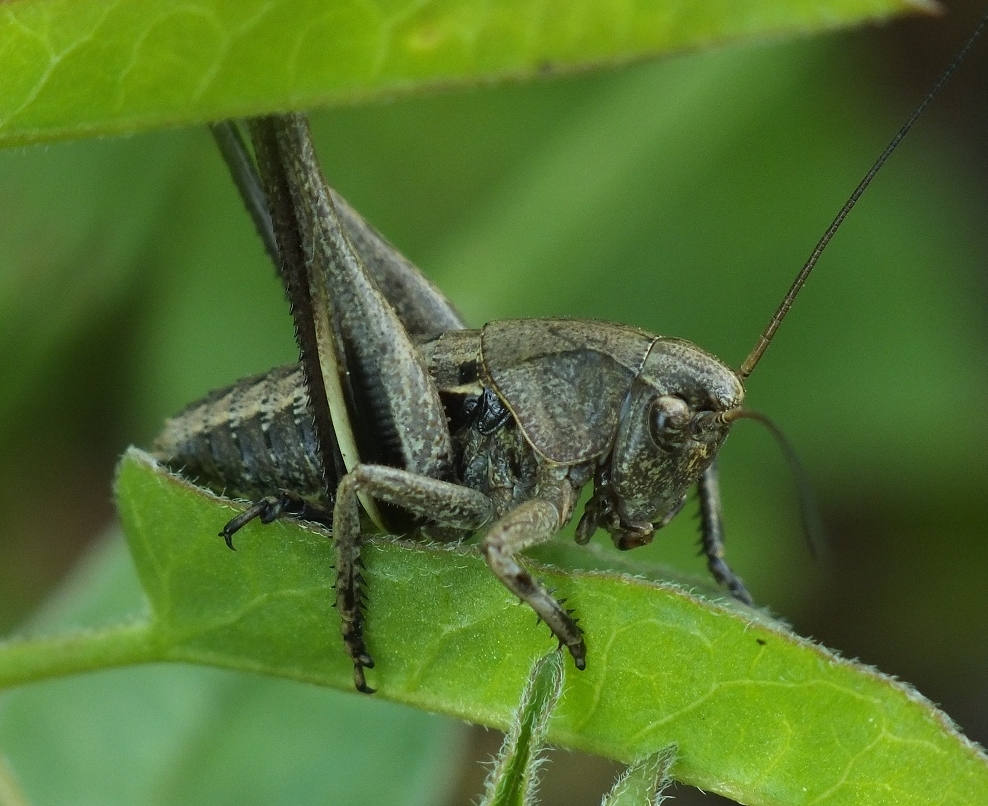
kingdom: Animalia
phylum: Arthropoda
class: Insecta
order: Orthoptera
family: Tettigoniidae
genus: Decticus
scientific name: Decticus verrucivorus
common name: Wart-biter
